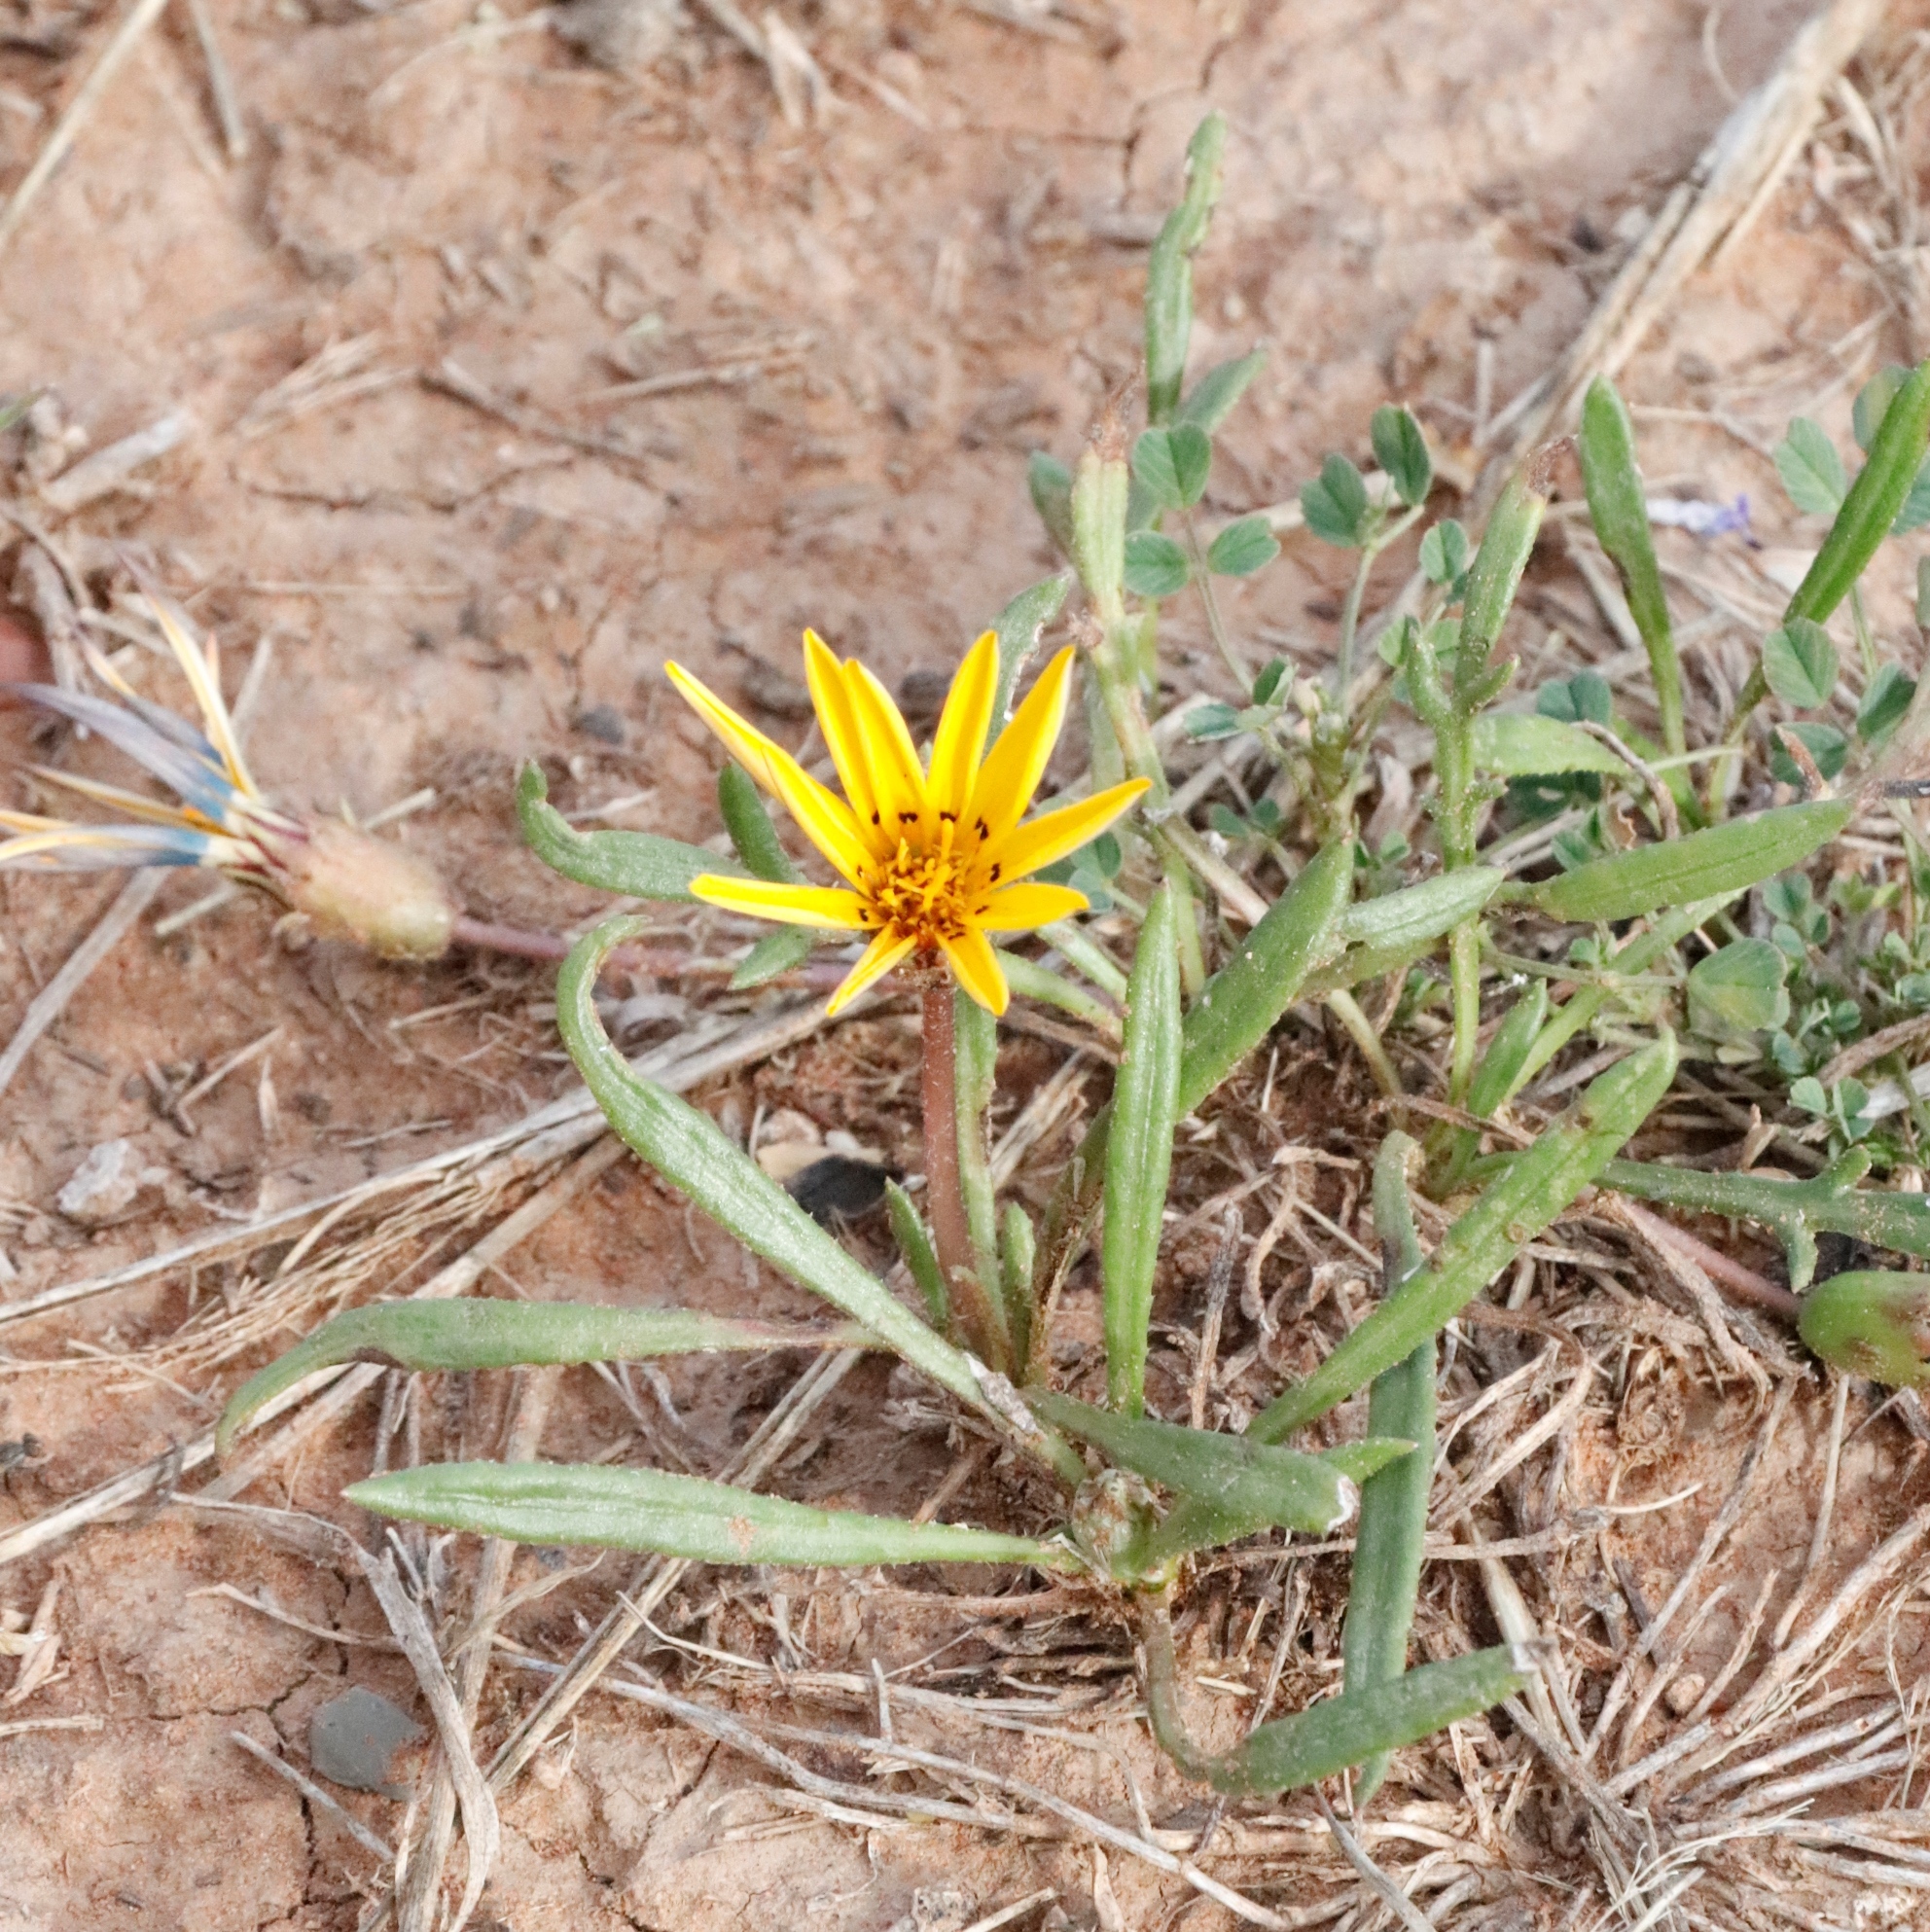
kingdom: Plantae
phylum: Tracheophyta
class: Magnoliopsida
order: Asterales
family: Asteraceae
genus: Gazania
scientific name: Gazania krebsiana
